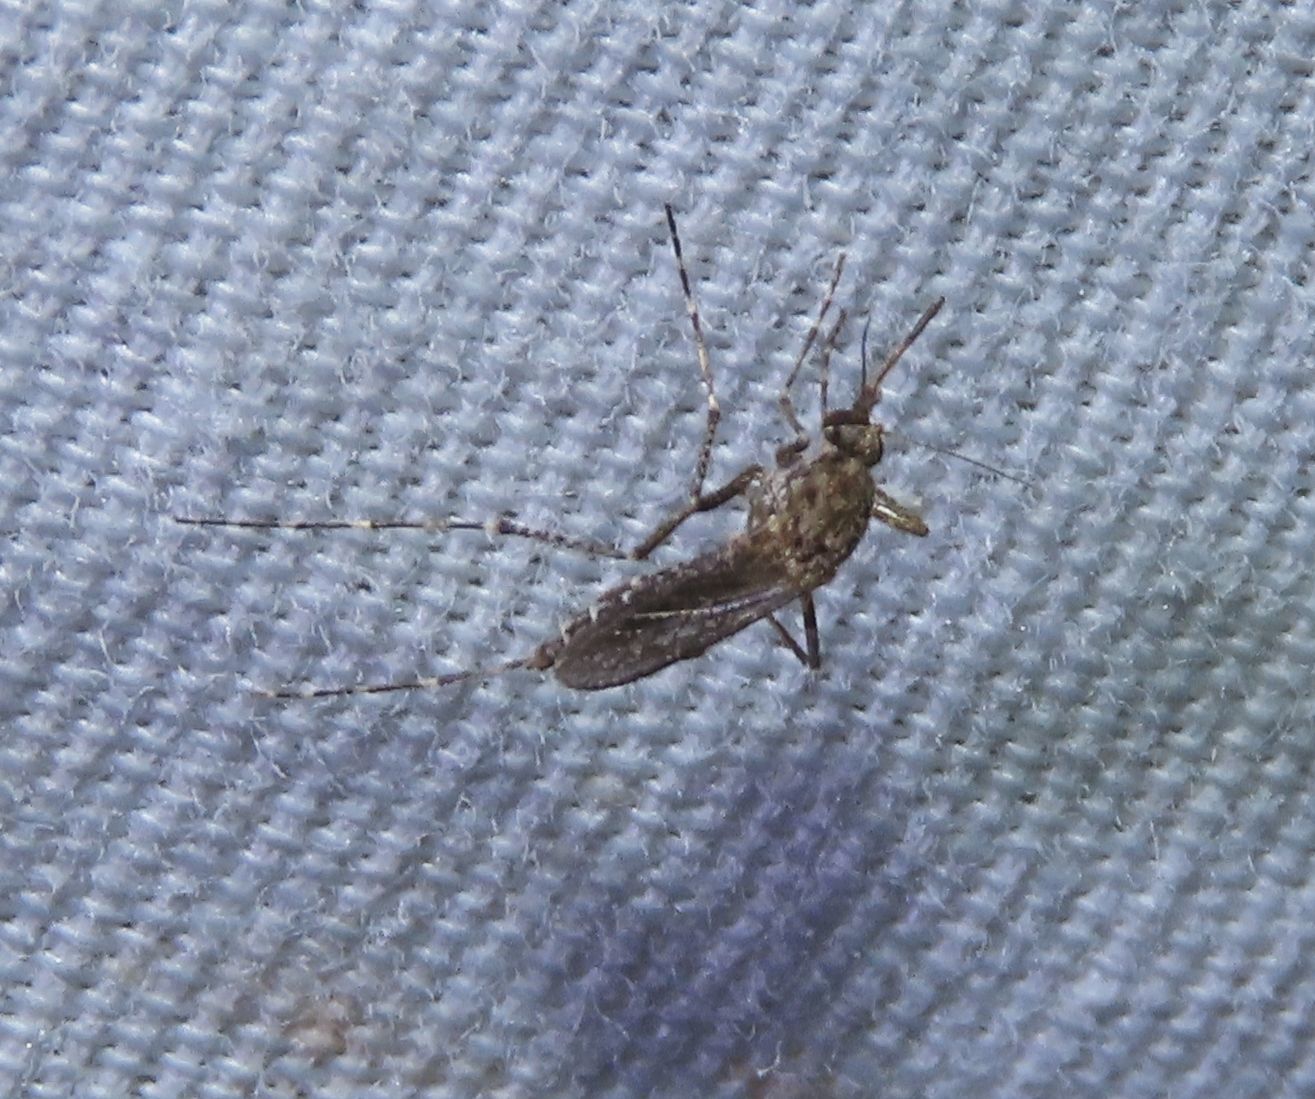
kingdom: Animalia
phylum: Arthropoda
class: Insecta
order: Diptera
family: Culicidae
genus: Psorophora
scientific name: Psorophora columbiae
